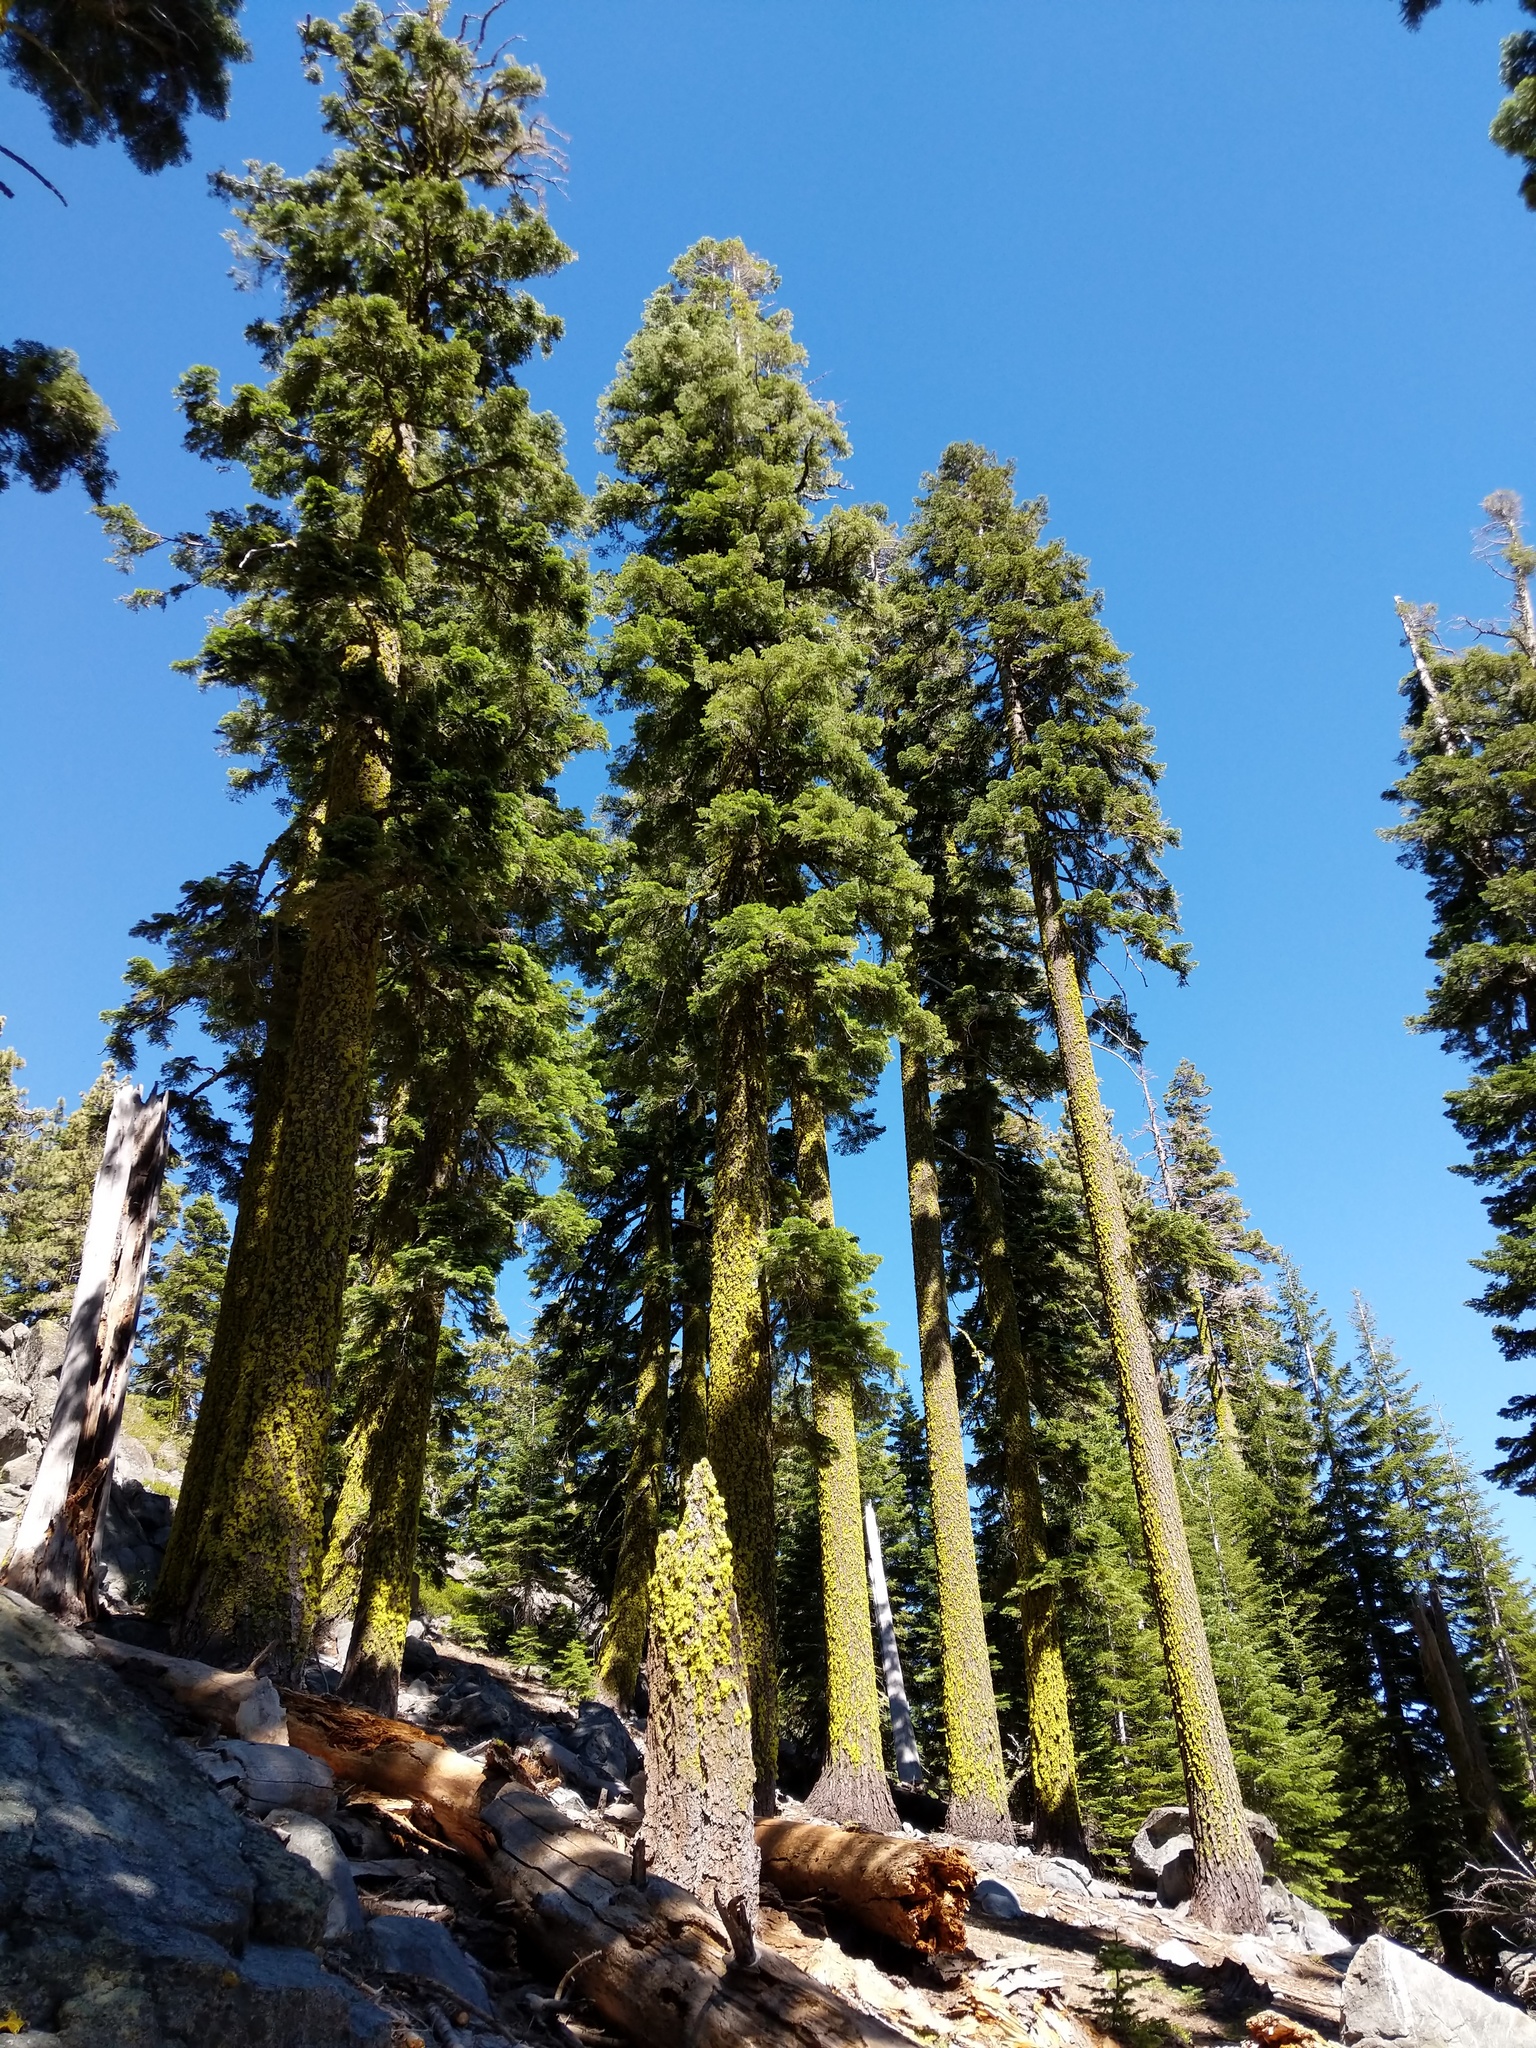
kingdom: Fungi
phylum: Ascomycota
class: Lecanoromycetes
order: Lecanorales
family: Parmeliaceae
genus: Letharia
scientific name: Letharia vulpina
